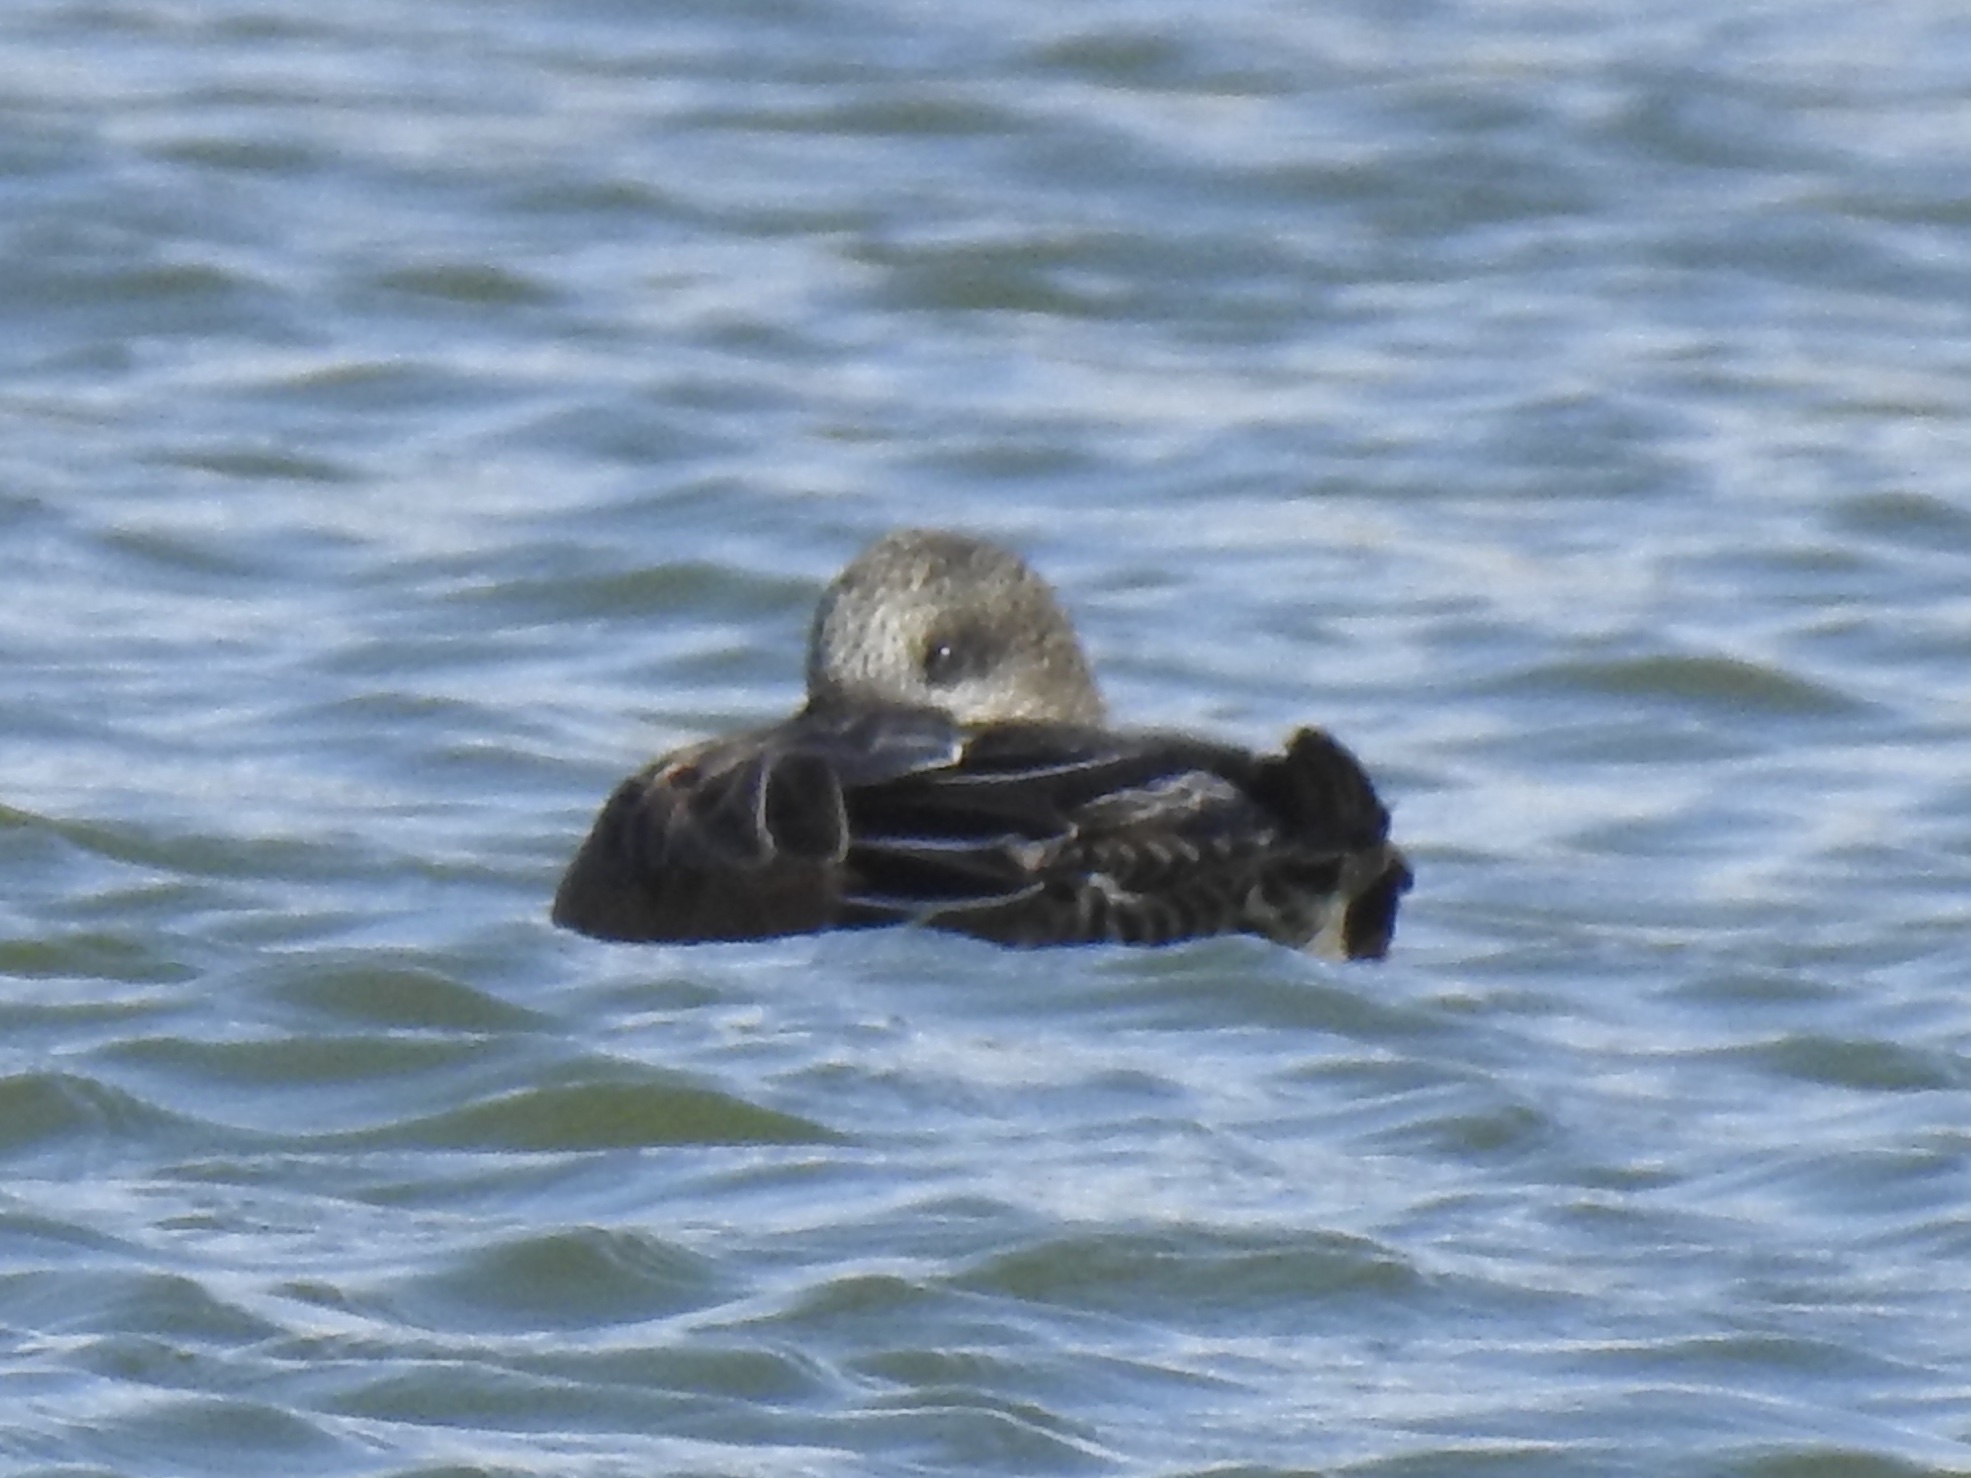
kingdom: Animalia
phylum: Chordata
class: Aves
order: Anseriformes
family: Anatidae
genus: Mareca
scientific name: Mareca americana
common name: American wigeon
